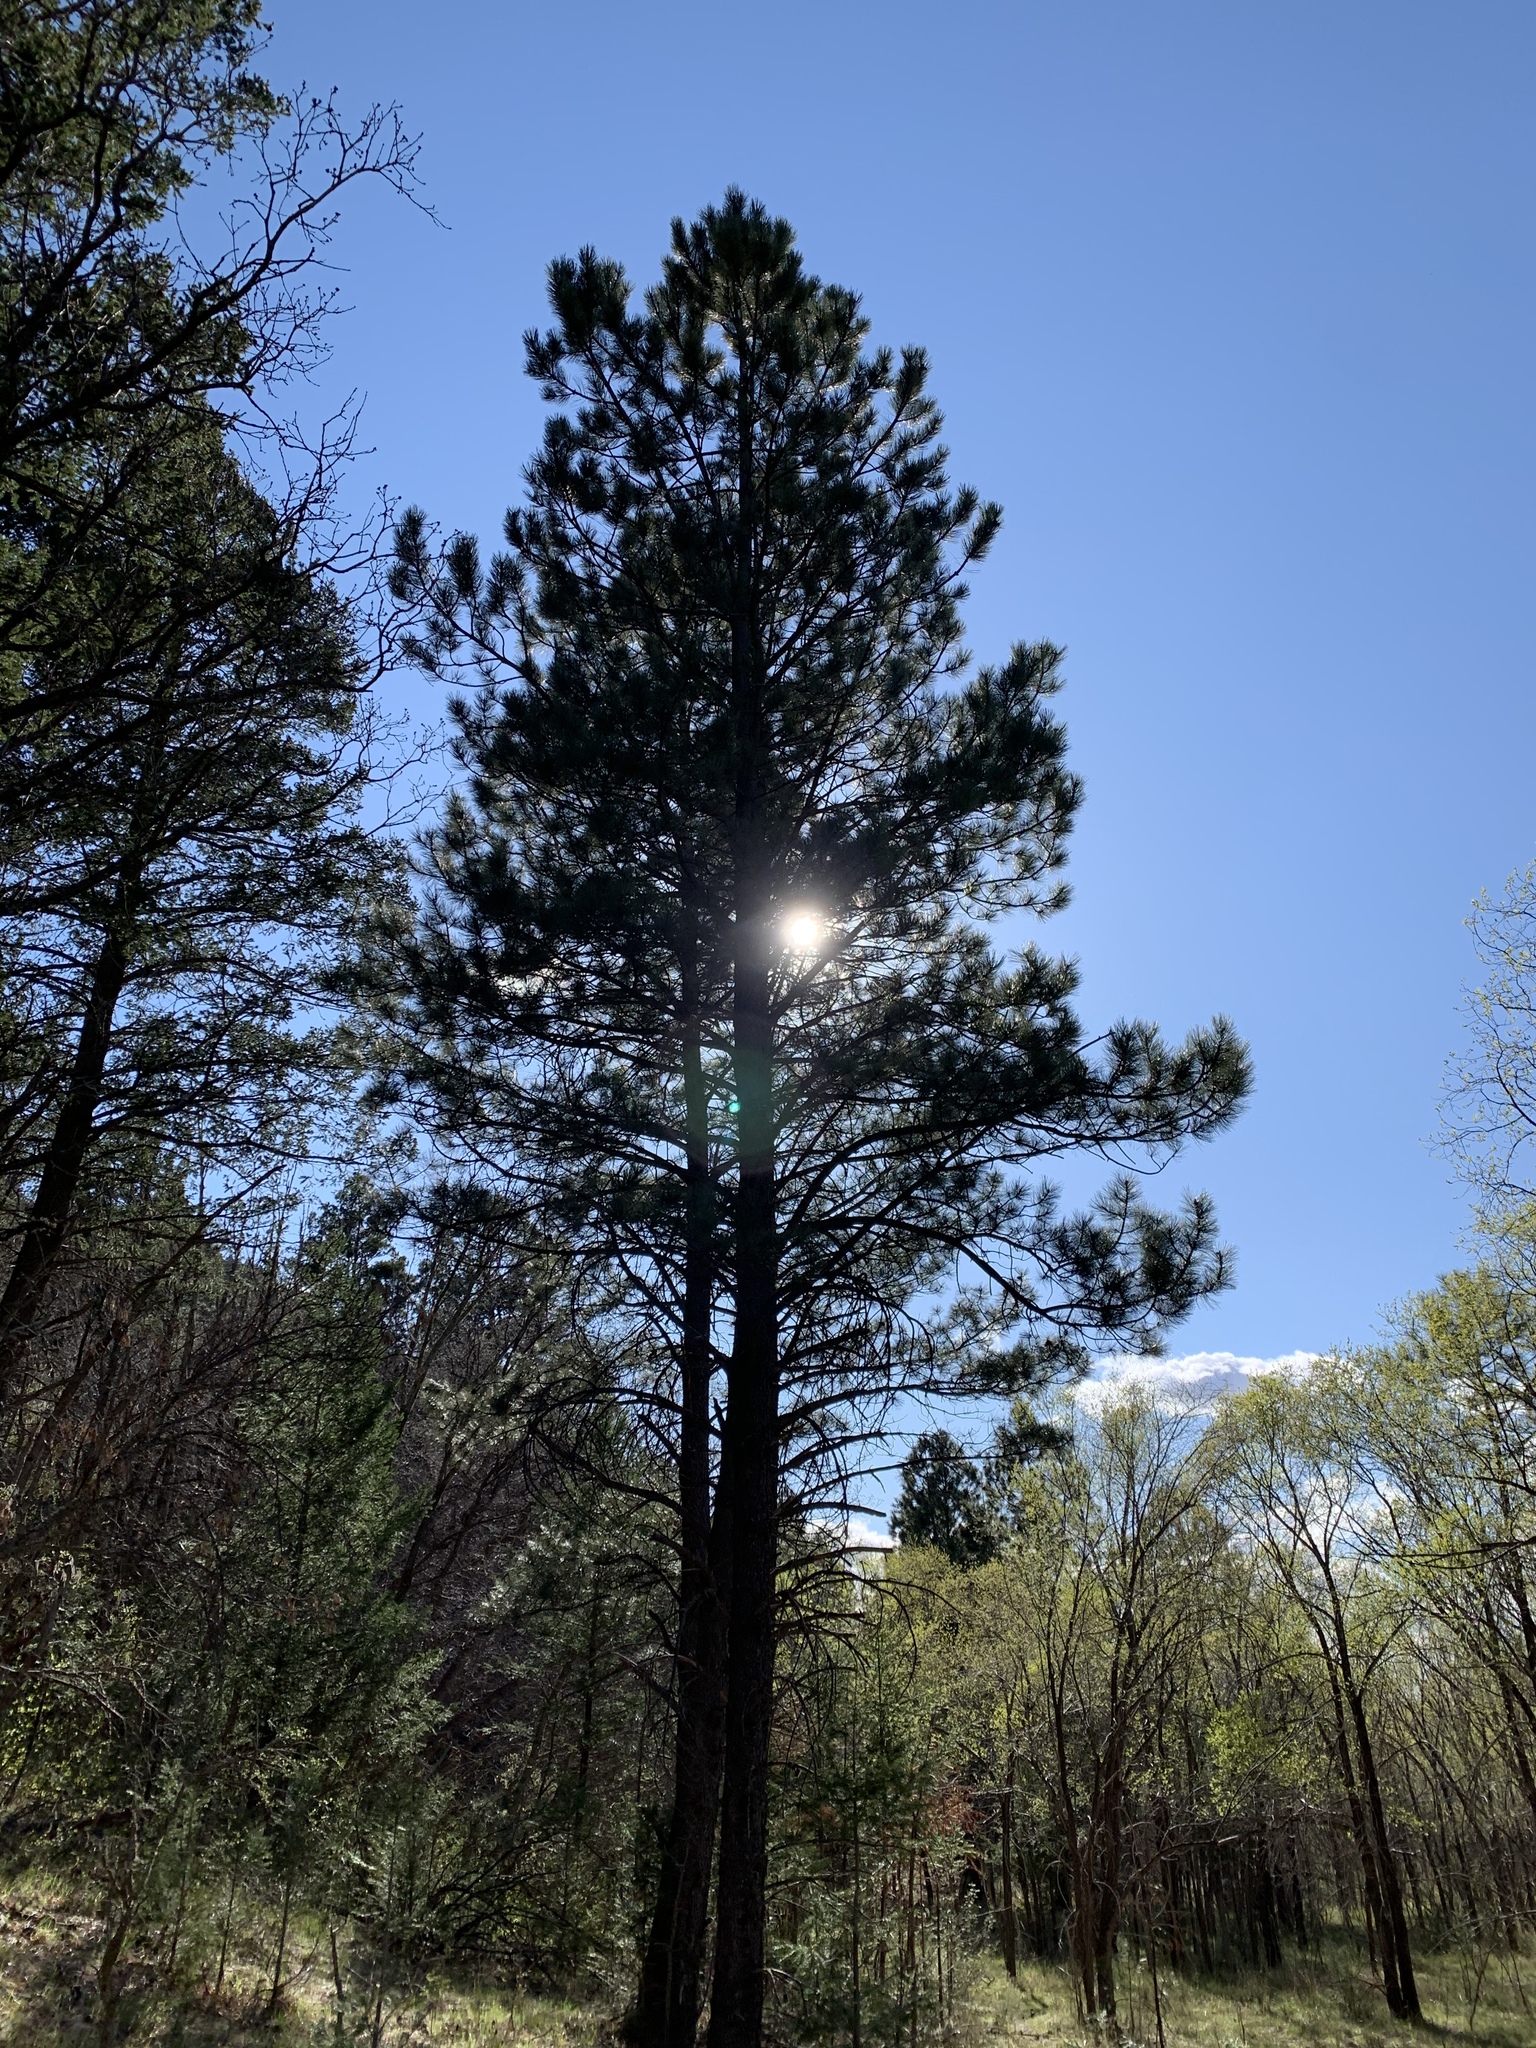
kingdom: Plantae
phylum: Tracheophyta
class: Pinopsida
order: Pinales
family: Pinaceae
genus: Pinus
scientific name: Pinus ponderosa
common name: Western yellow-pine
